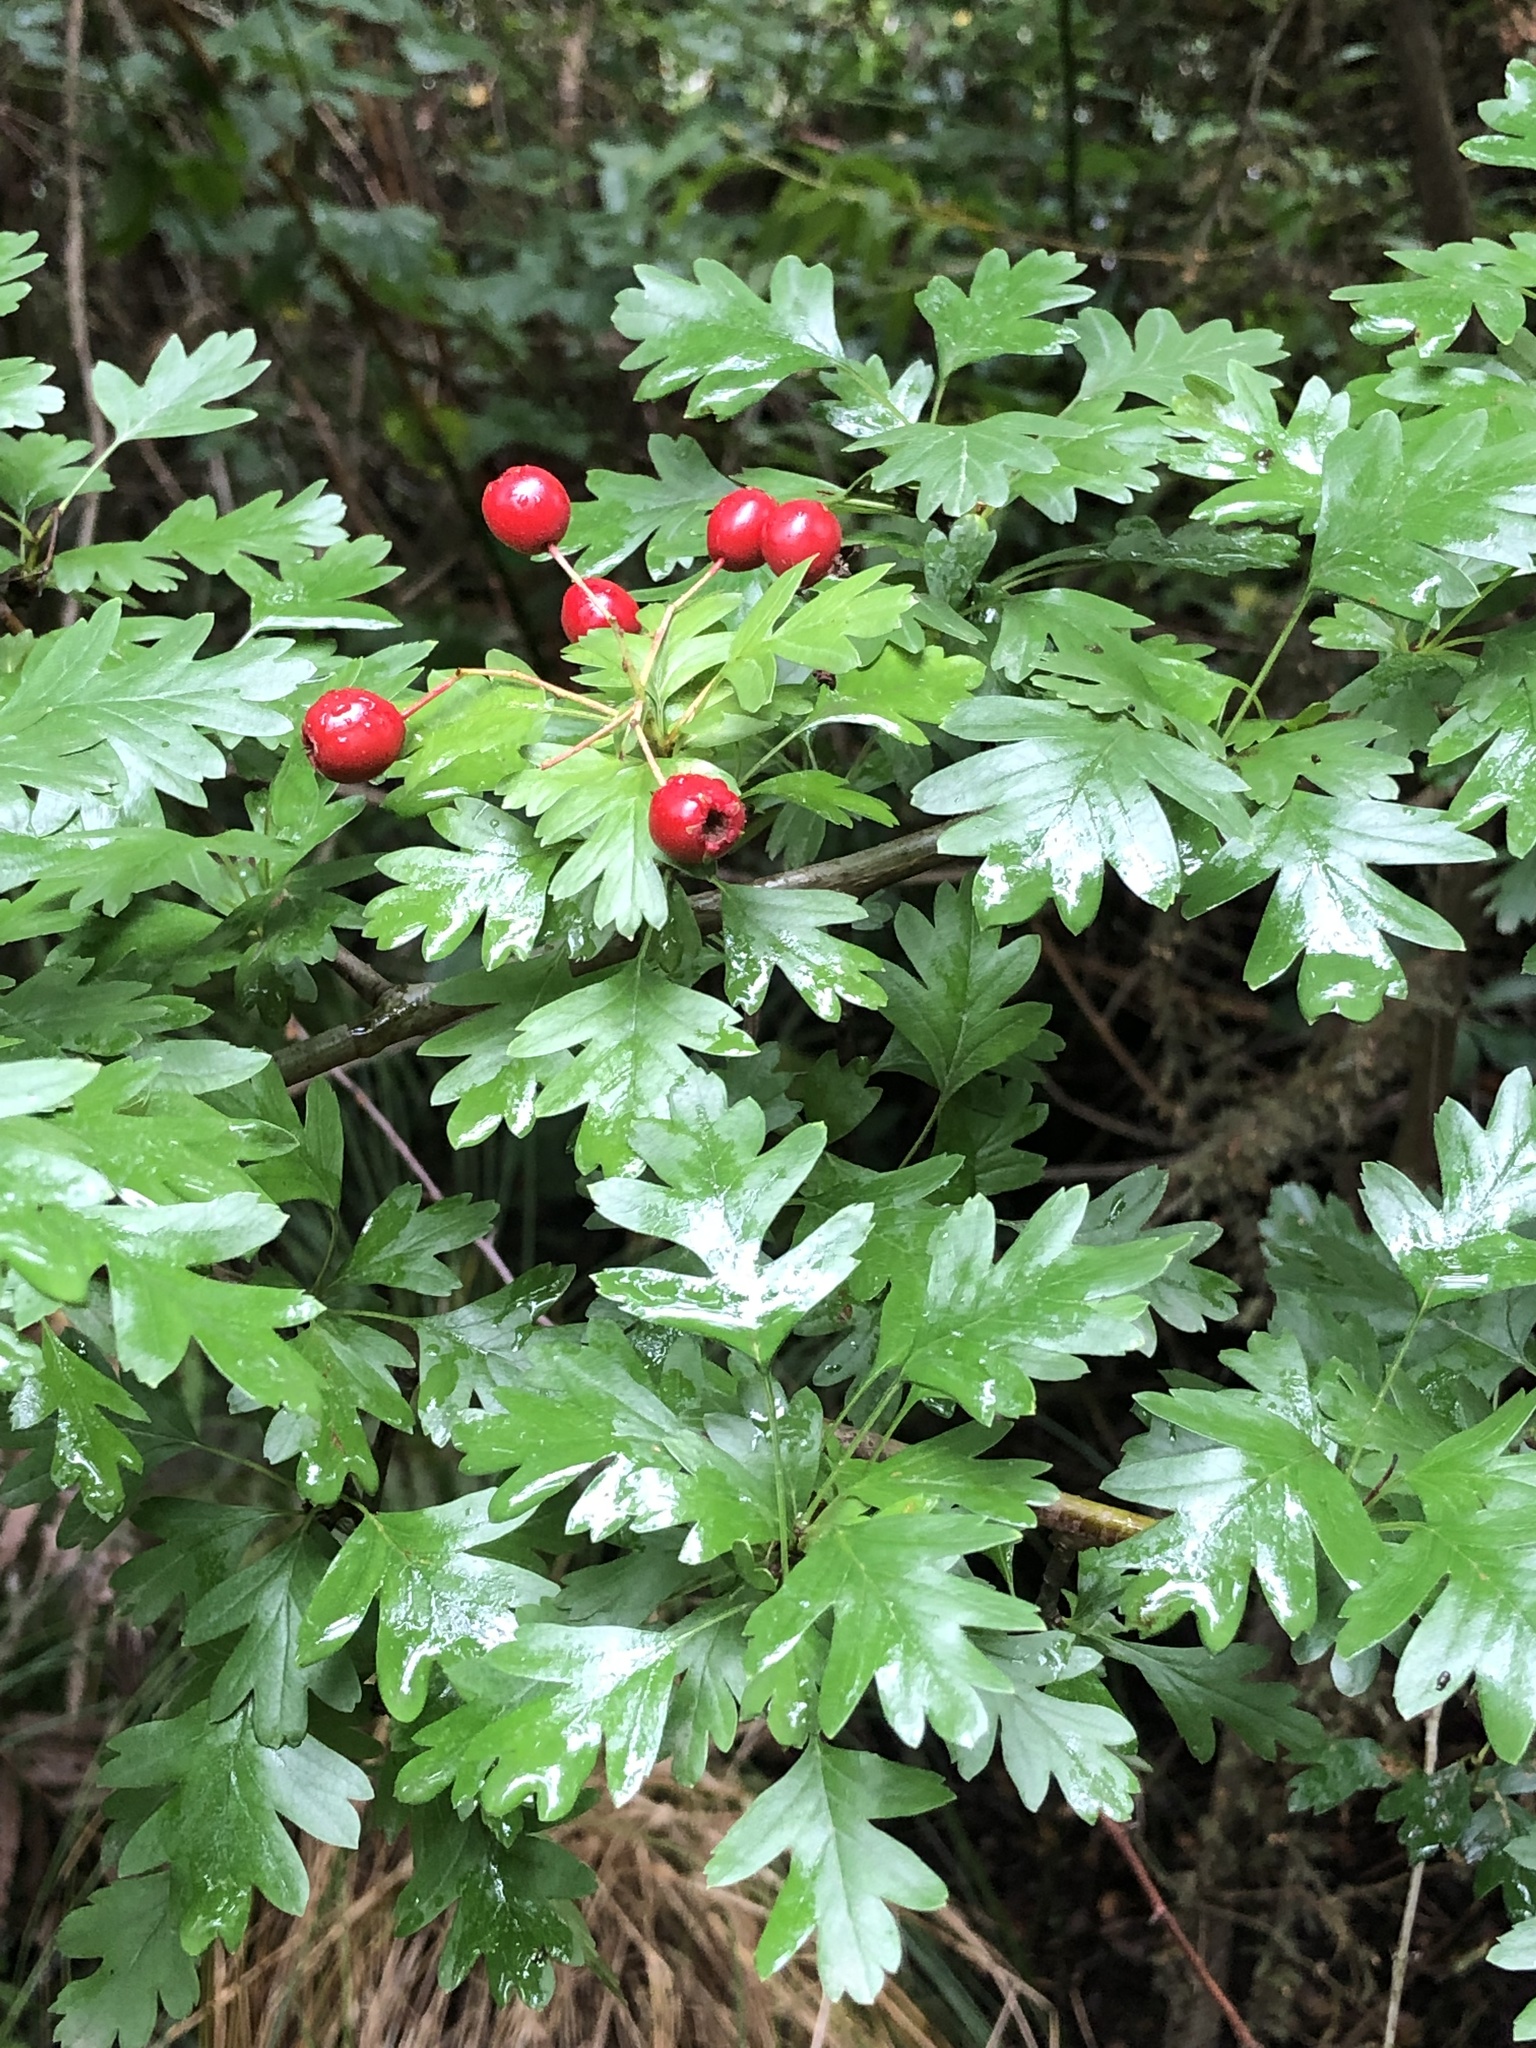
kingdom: Plantae
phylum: Tracheophyta
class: Magnoliopsida
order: Rosales
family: Rosaceae
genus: Crataegus
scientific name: Crataegus monogyna
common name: Hawthorn
